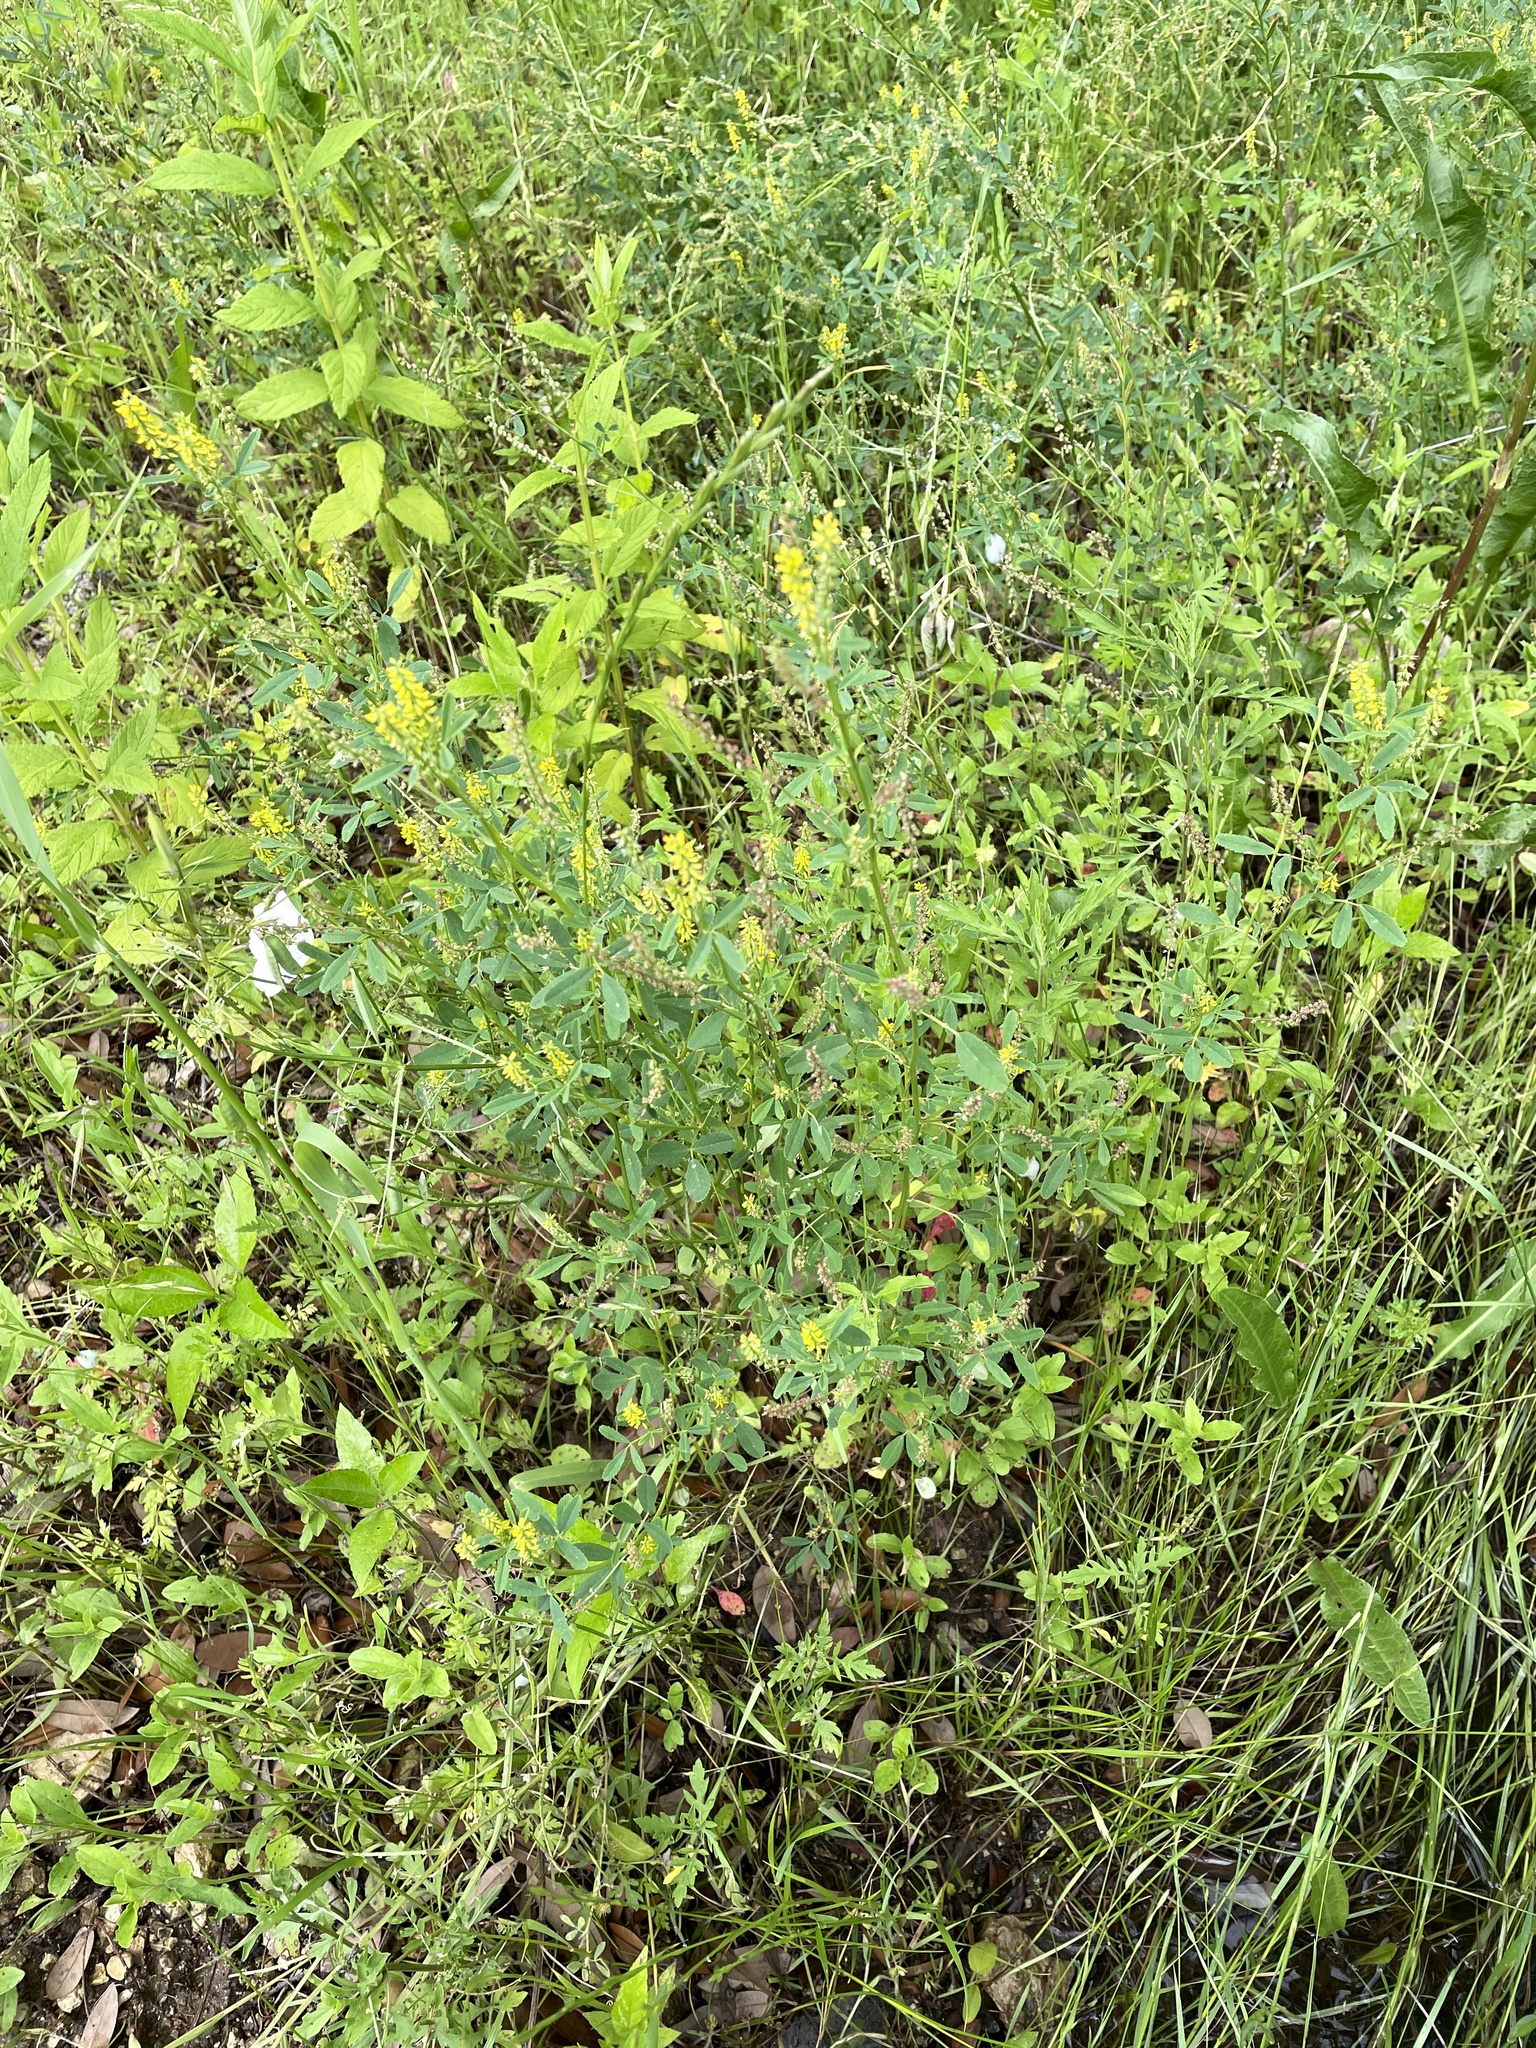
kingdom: Plantae
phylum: Tracheophyta
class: Magnoliopsida
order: Fabales
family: Fabaceae
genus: Melilotus
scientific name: Melilotus indicus
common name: Small melilot
